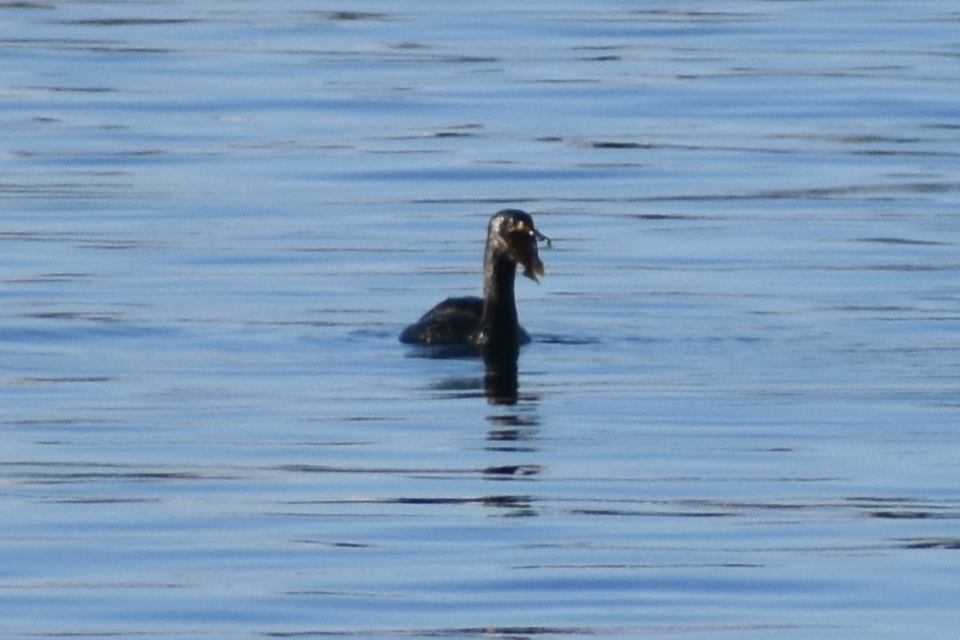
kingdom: Animalia
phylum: Chordata
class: Aves
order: Suliformes
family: Phalacrocoracidae
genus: Phalacrocorax
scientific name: Phalacrocorax pelagicus
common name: Pelagic cormorant
